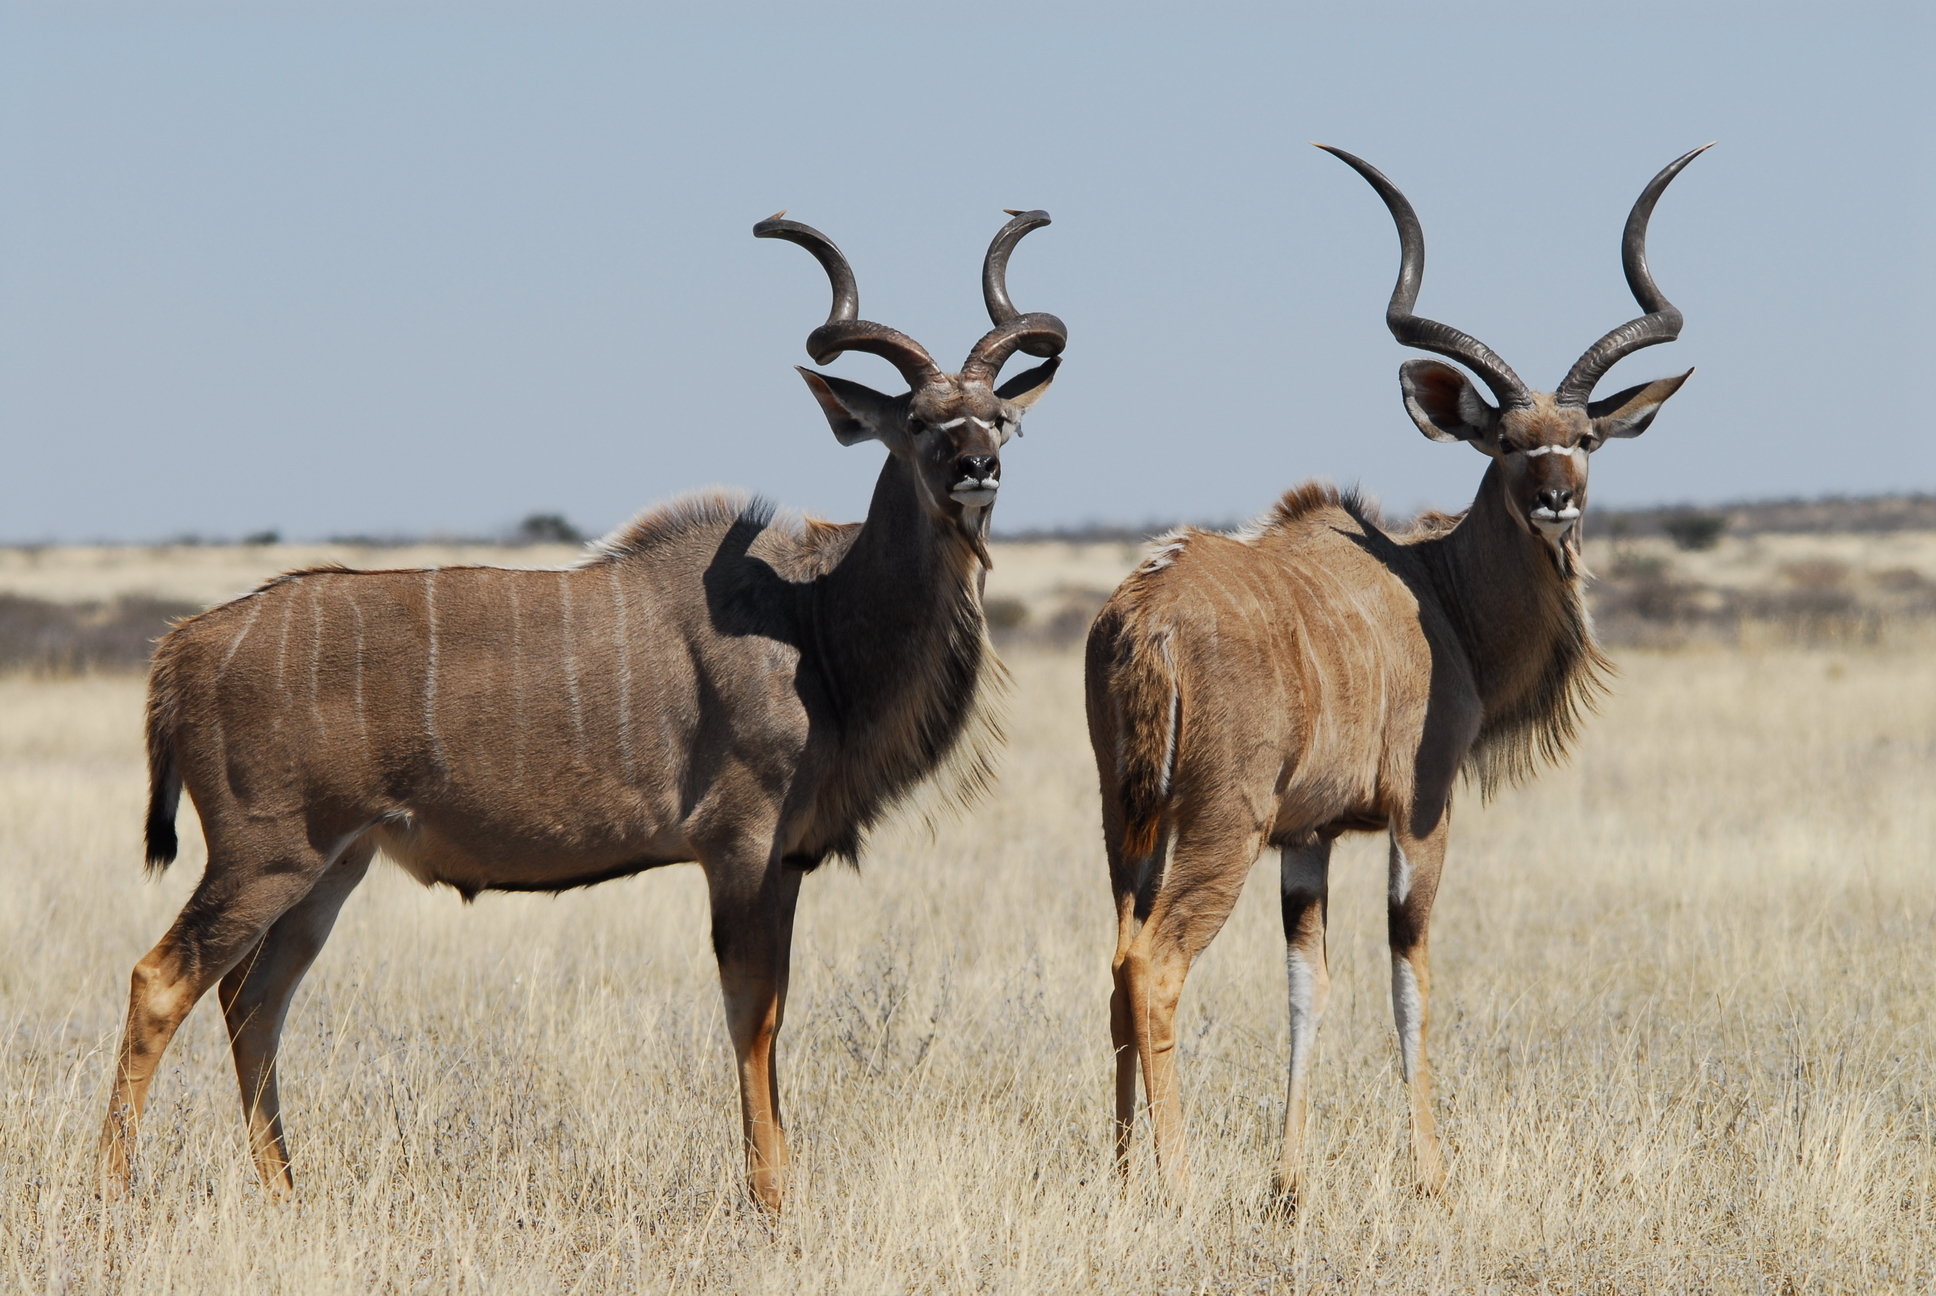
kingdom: Animalia
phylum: Chordata
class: Mammalia
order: Artiodactyla
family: Bovidae
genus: Tragelaphus
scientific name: Tragelaphus strepsiceros
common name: Greater kudu
